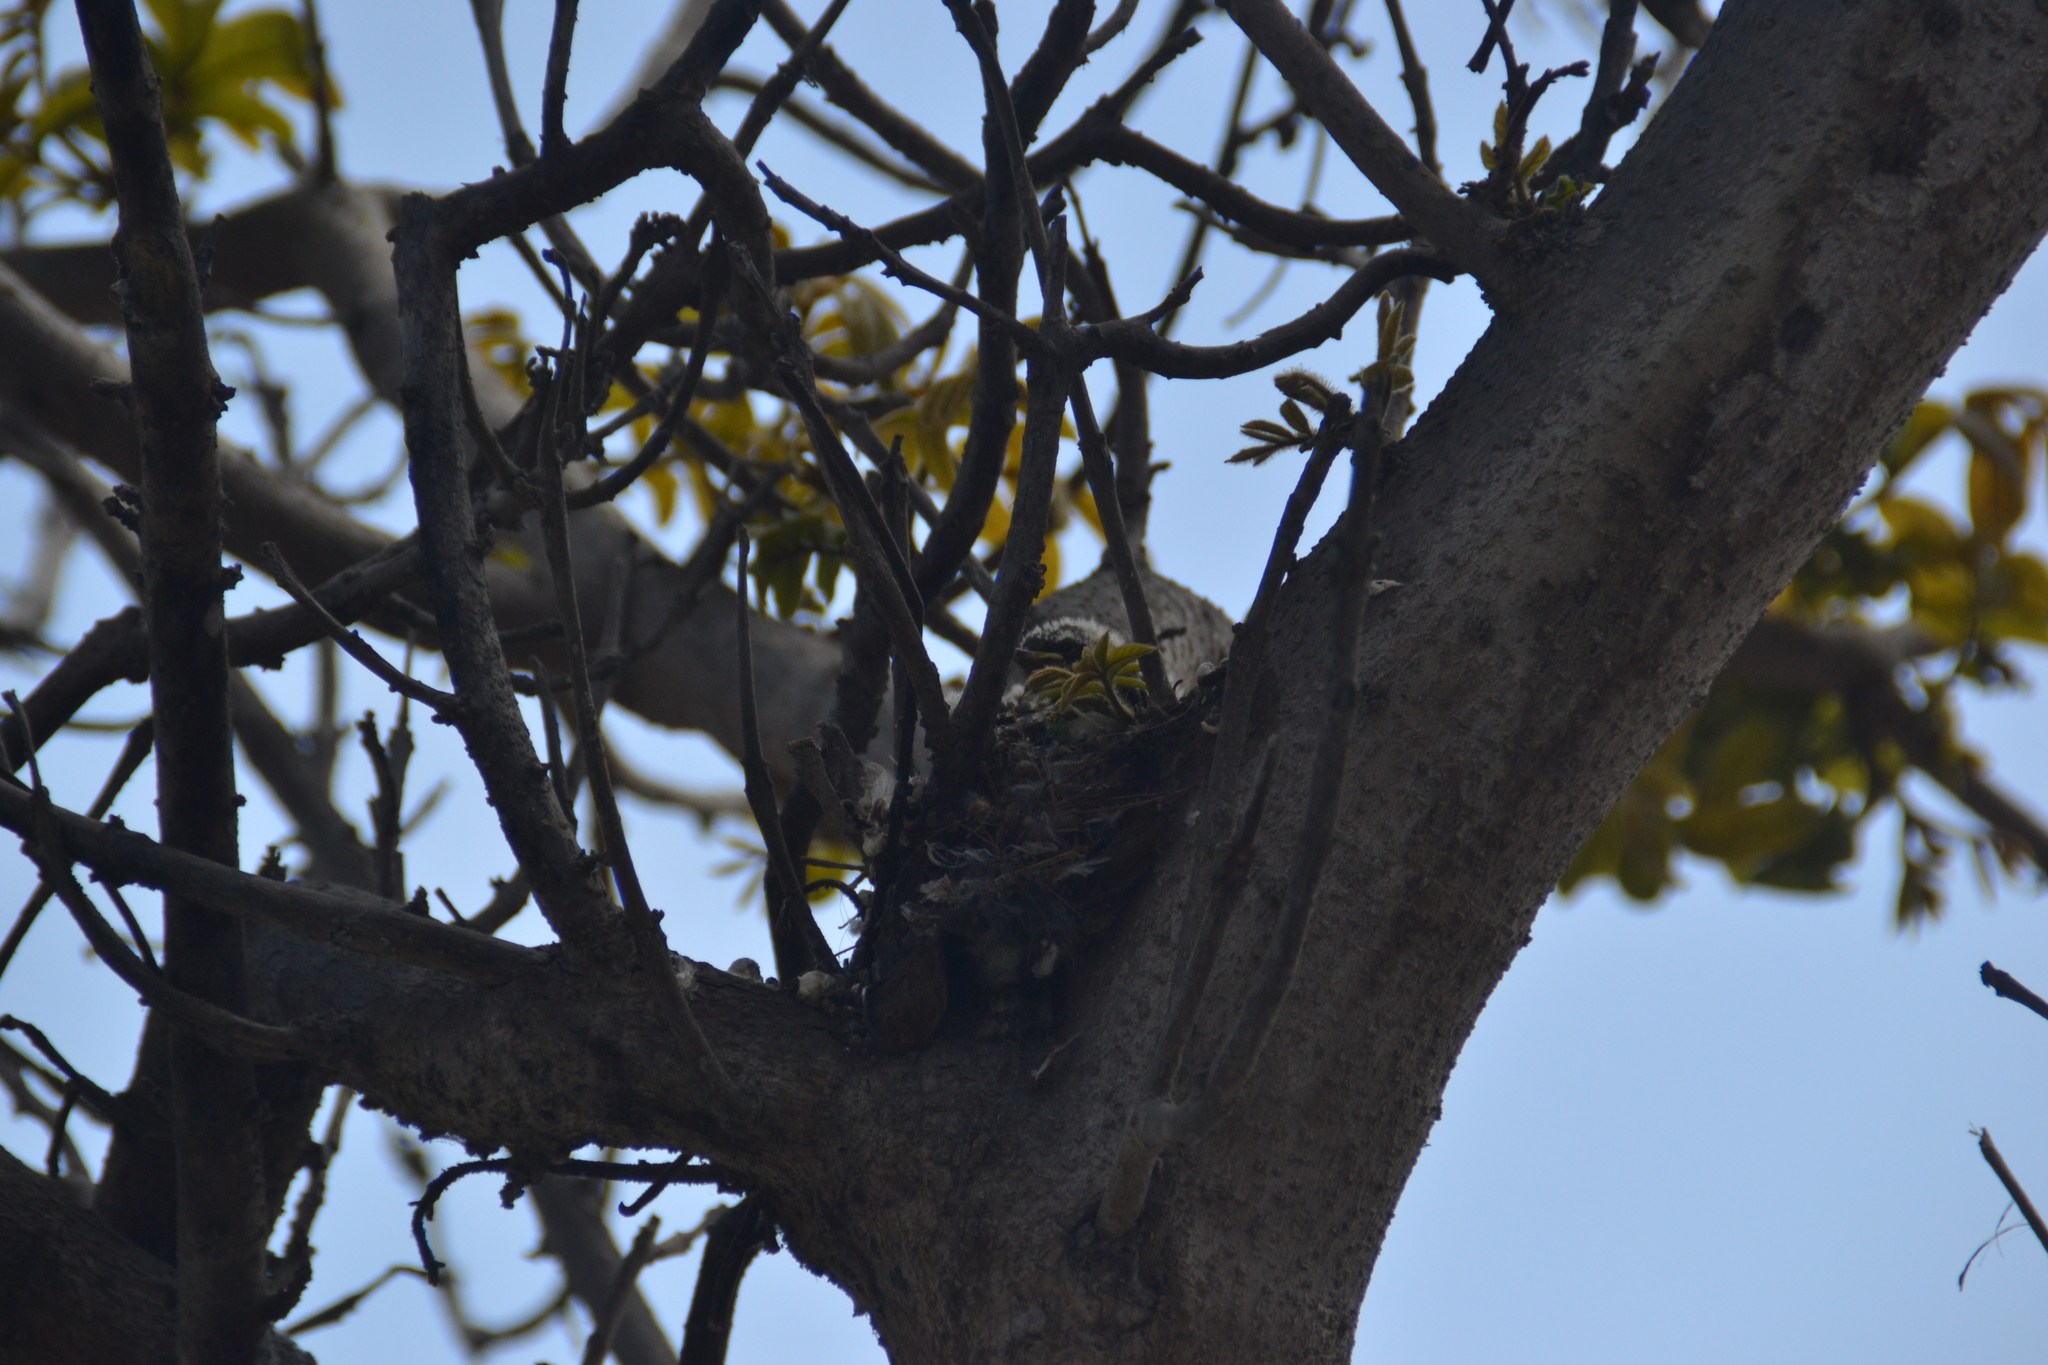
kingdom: Animalia
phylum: Chordata
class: Aves
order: Passeriformes
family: Tyrannidae
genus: Pyrocephalus
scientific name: Pyrocephalus rubinus
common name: Vermilion flycatcher
